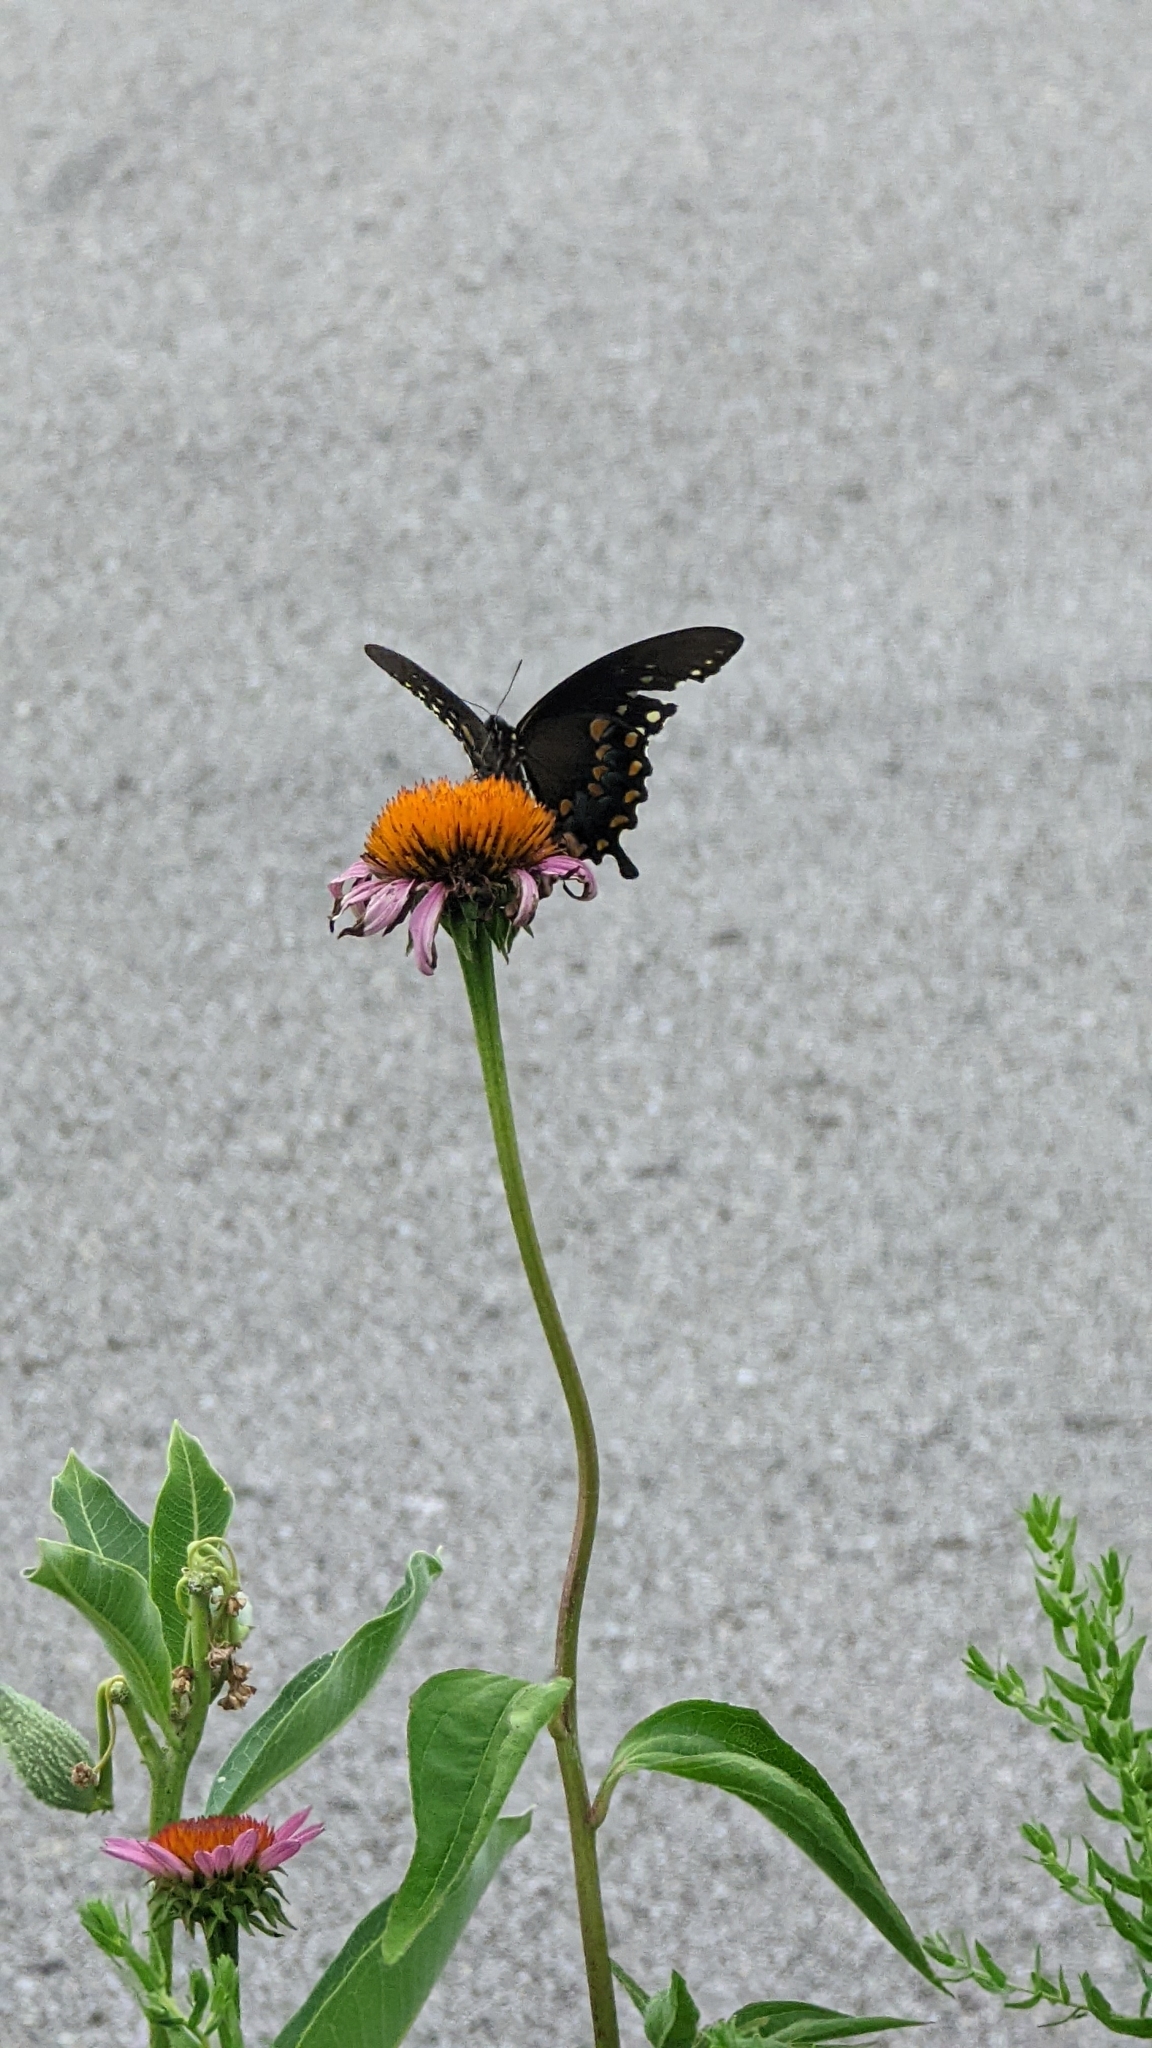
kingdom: Animalia
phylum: Arthropoda
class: Insecta
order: Lepidoptera
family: Papilionidae
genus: Papilio
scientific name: Papilio troilus
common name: Spicebush swallowtail
